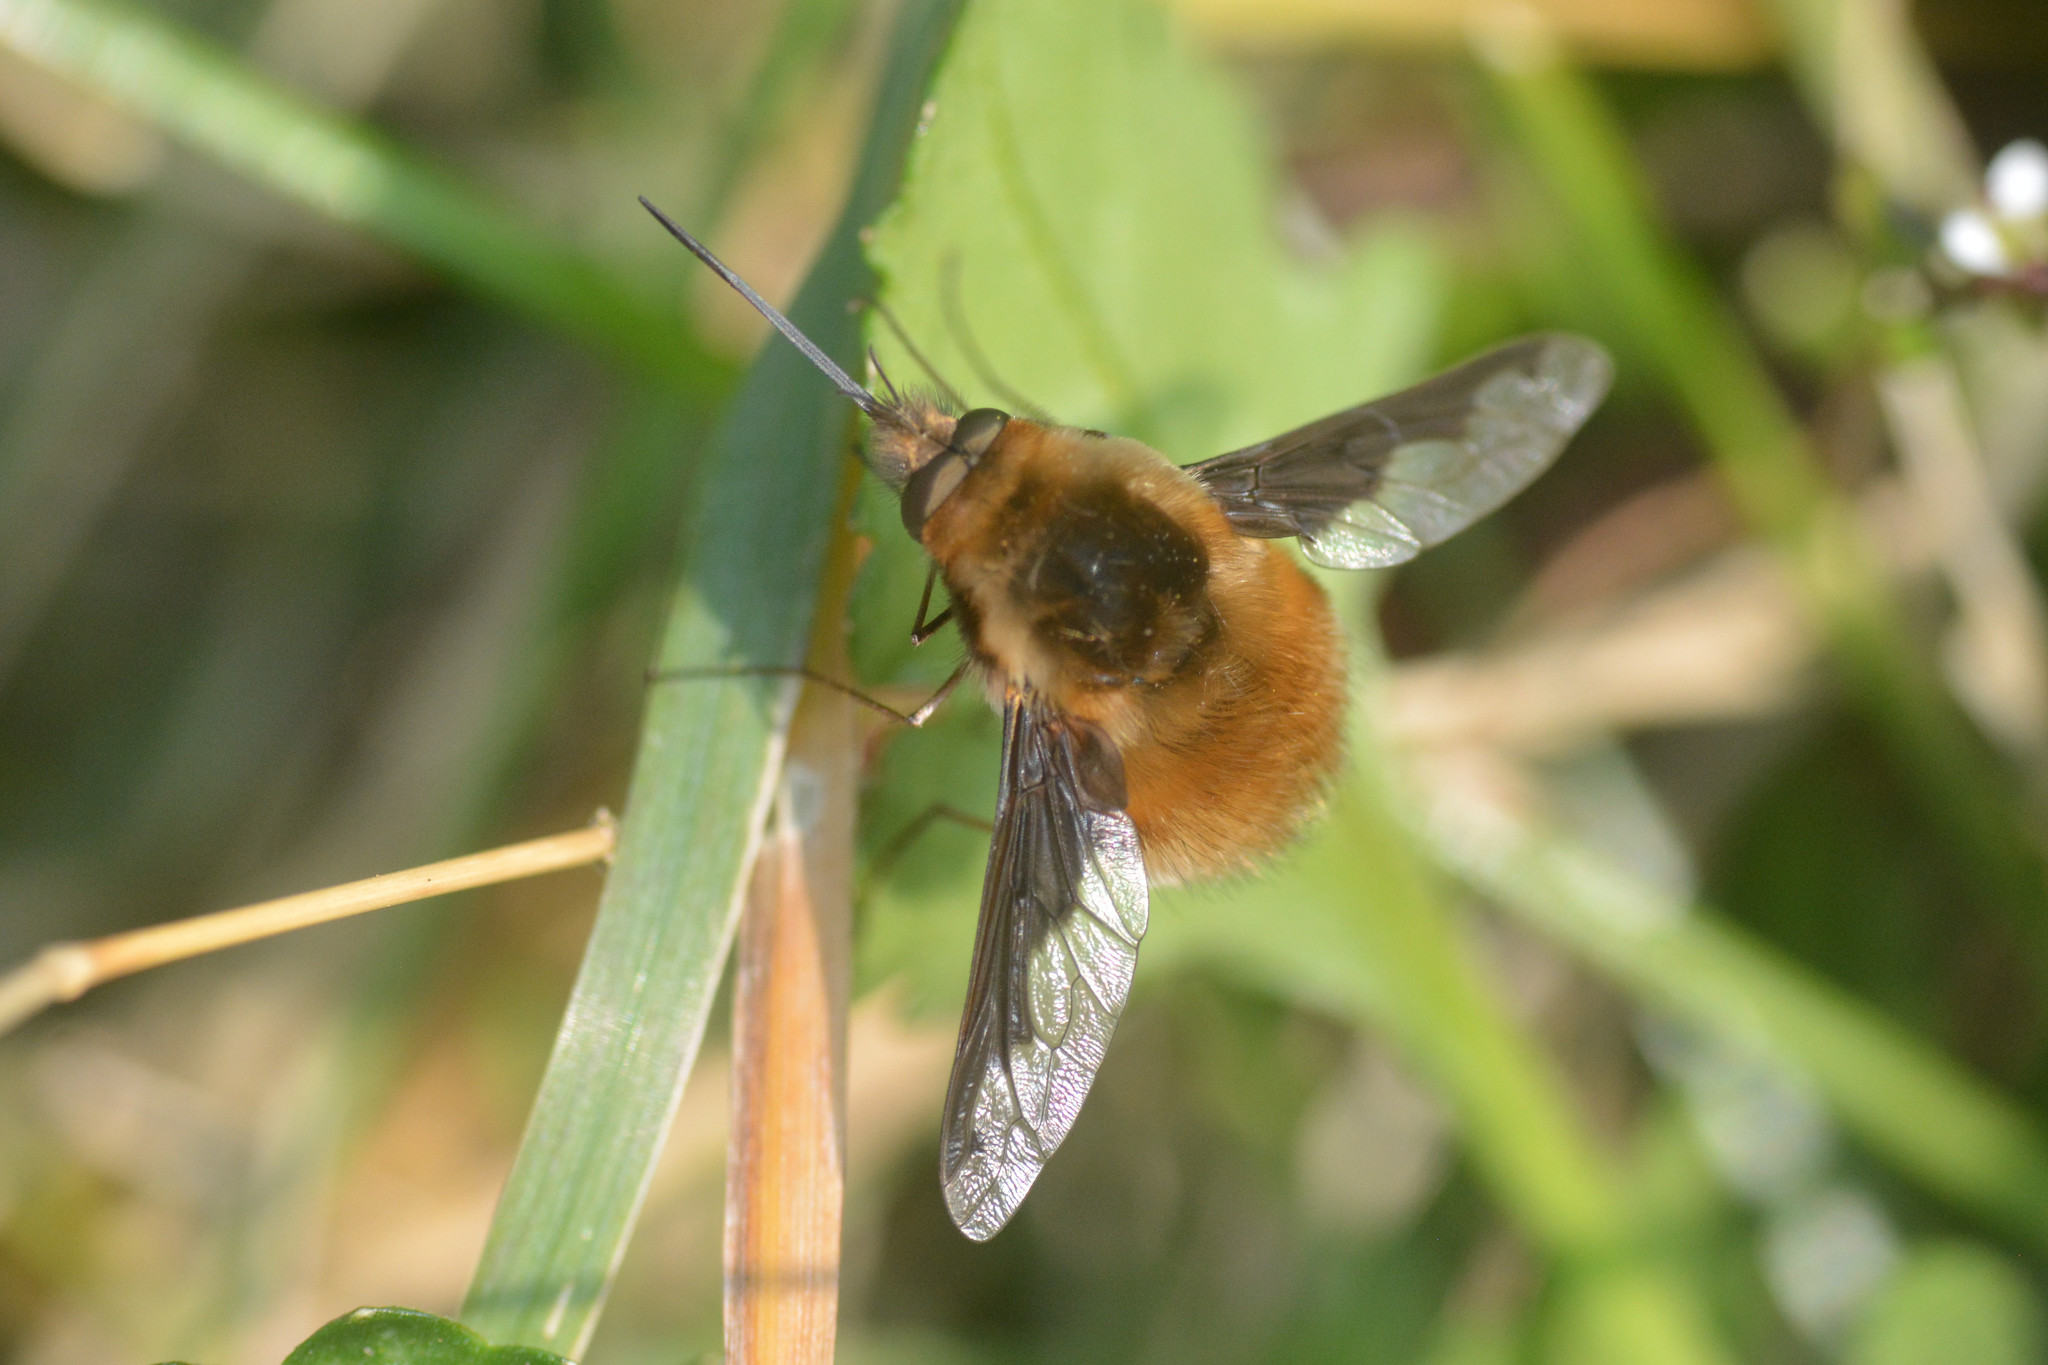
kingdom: Animalia
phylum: Arthropoda
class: Insecta
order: Diptera
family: Bombyliidae
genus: Bombylius
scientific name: Bombylius major
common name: Bee fly
